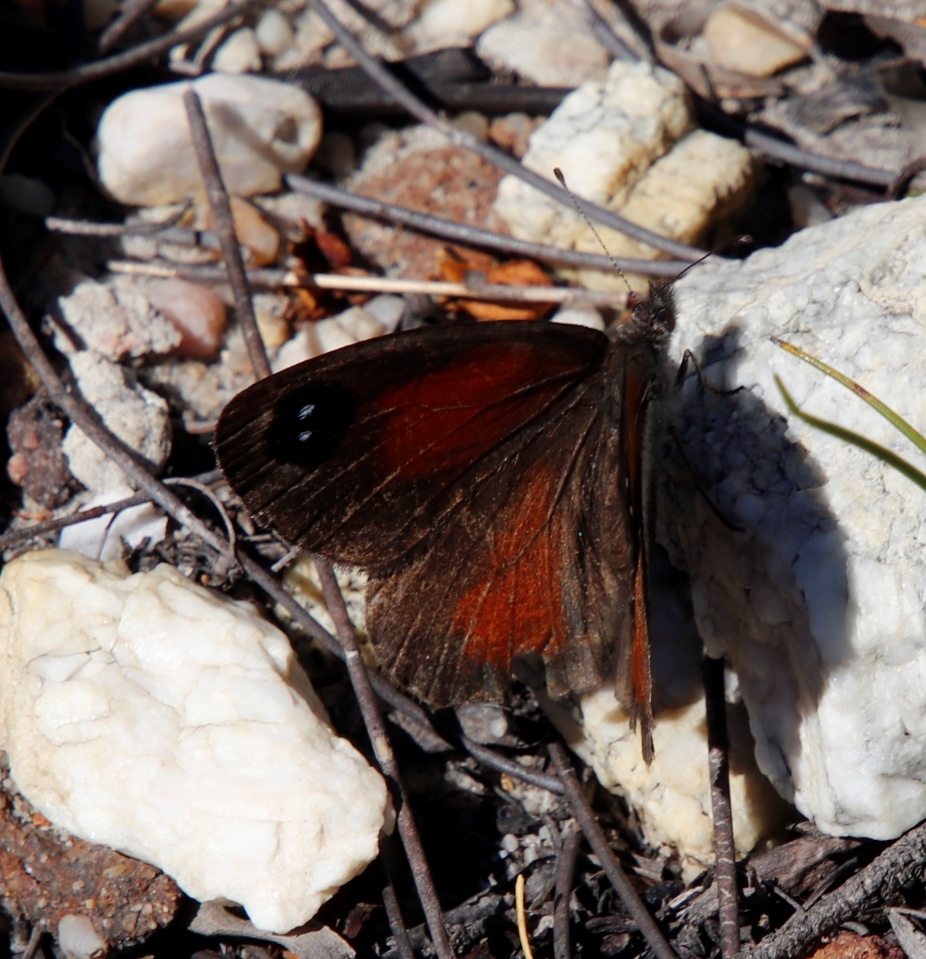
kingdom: Animalia
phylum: Arthropoda
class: Insecta
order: Lepidoptera
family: Nymphalidae
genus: Stygionympha
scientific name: Stygionympha vigilans
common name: Western hillside brown
